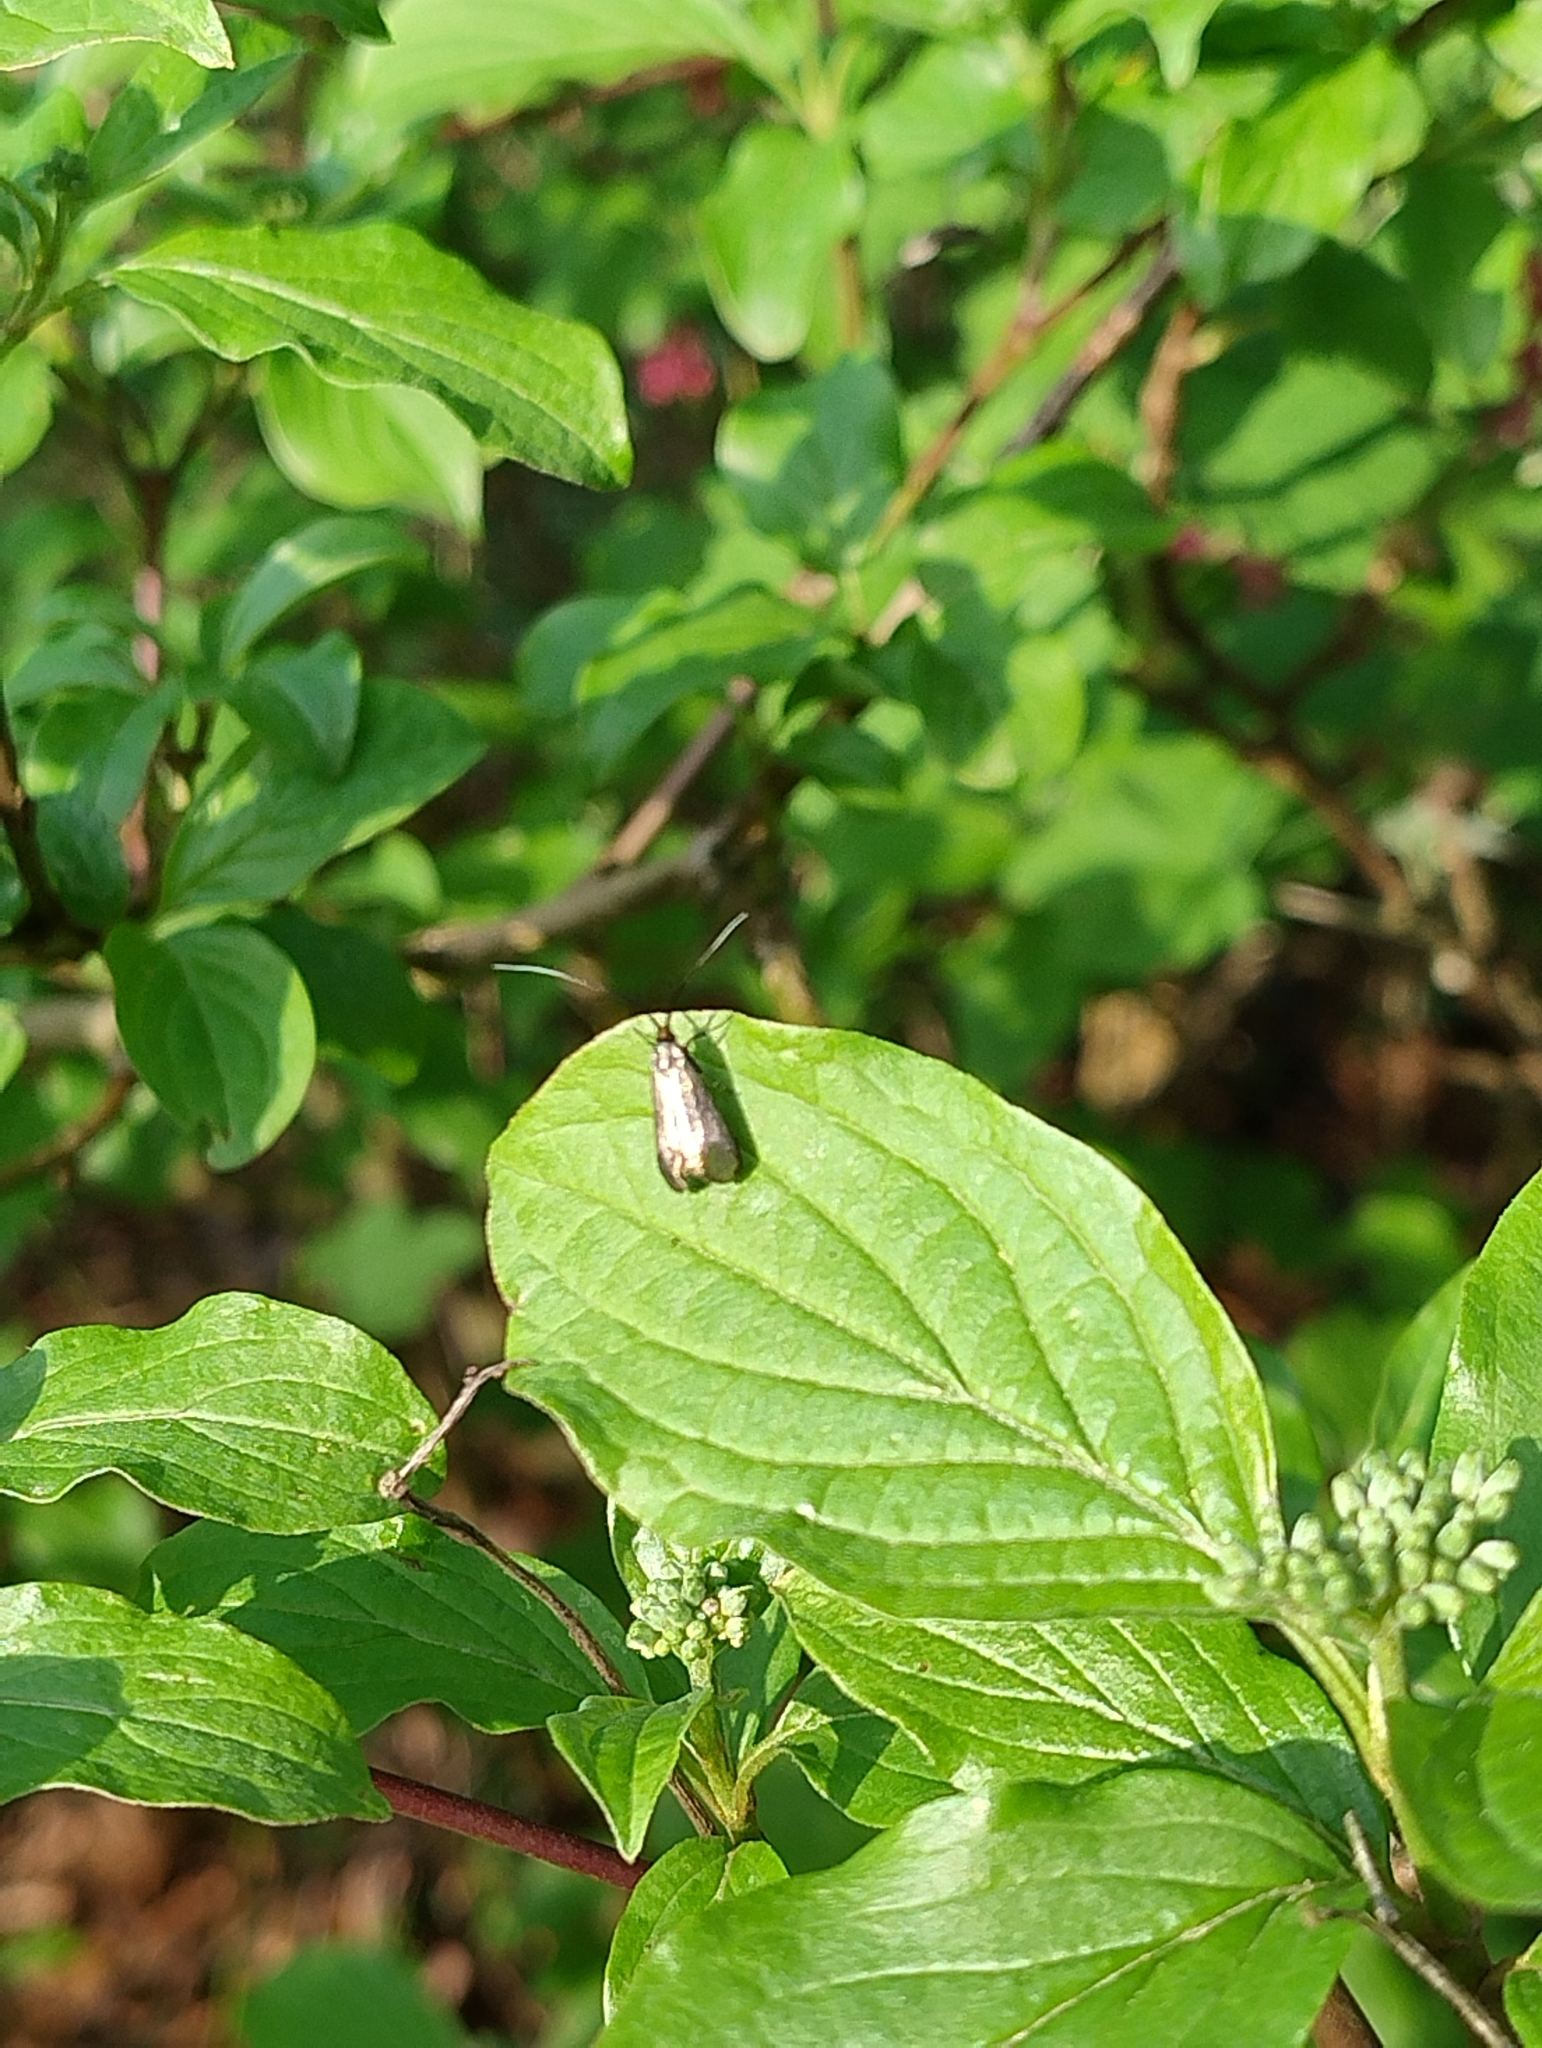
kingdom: Animalia
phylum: Arthropoda
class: Insecta
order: Lepidoptera
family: Adelidae
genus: Adela
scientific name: Adela viridella
